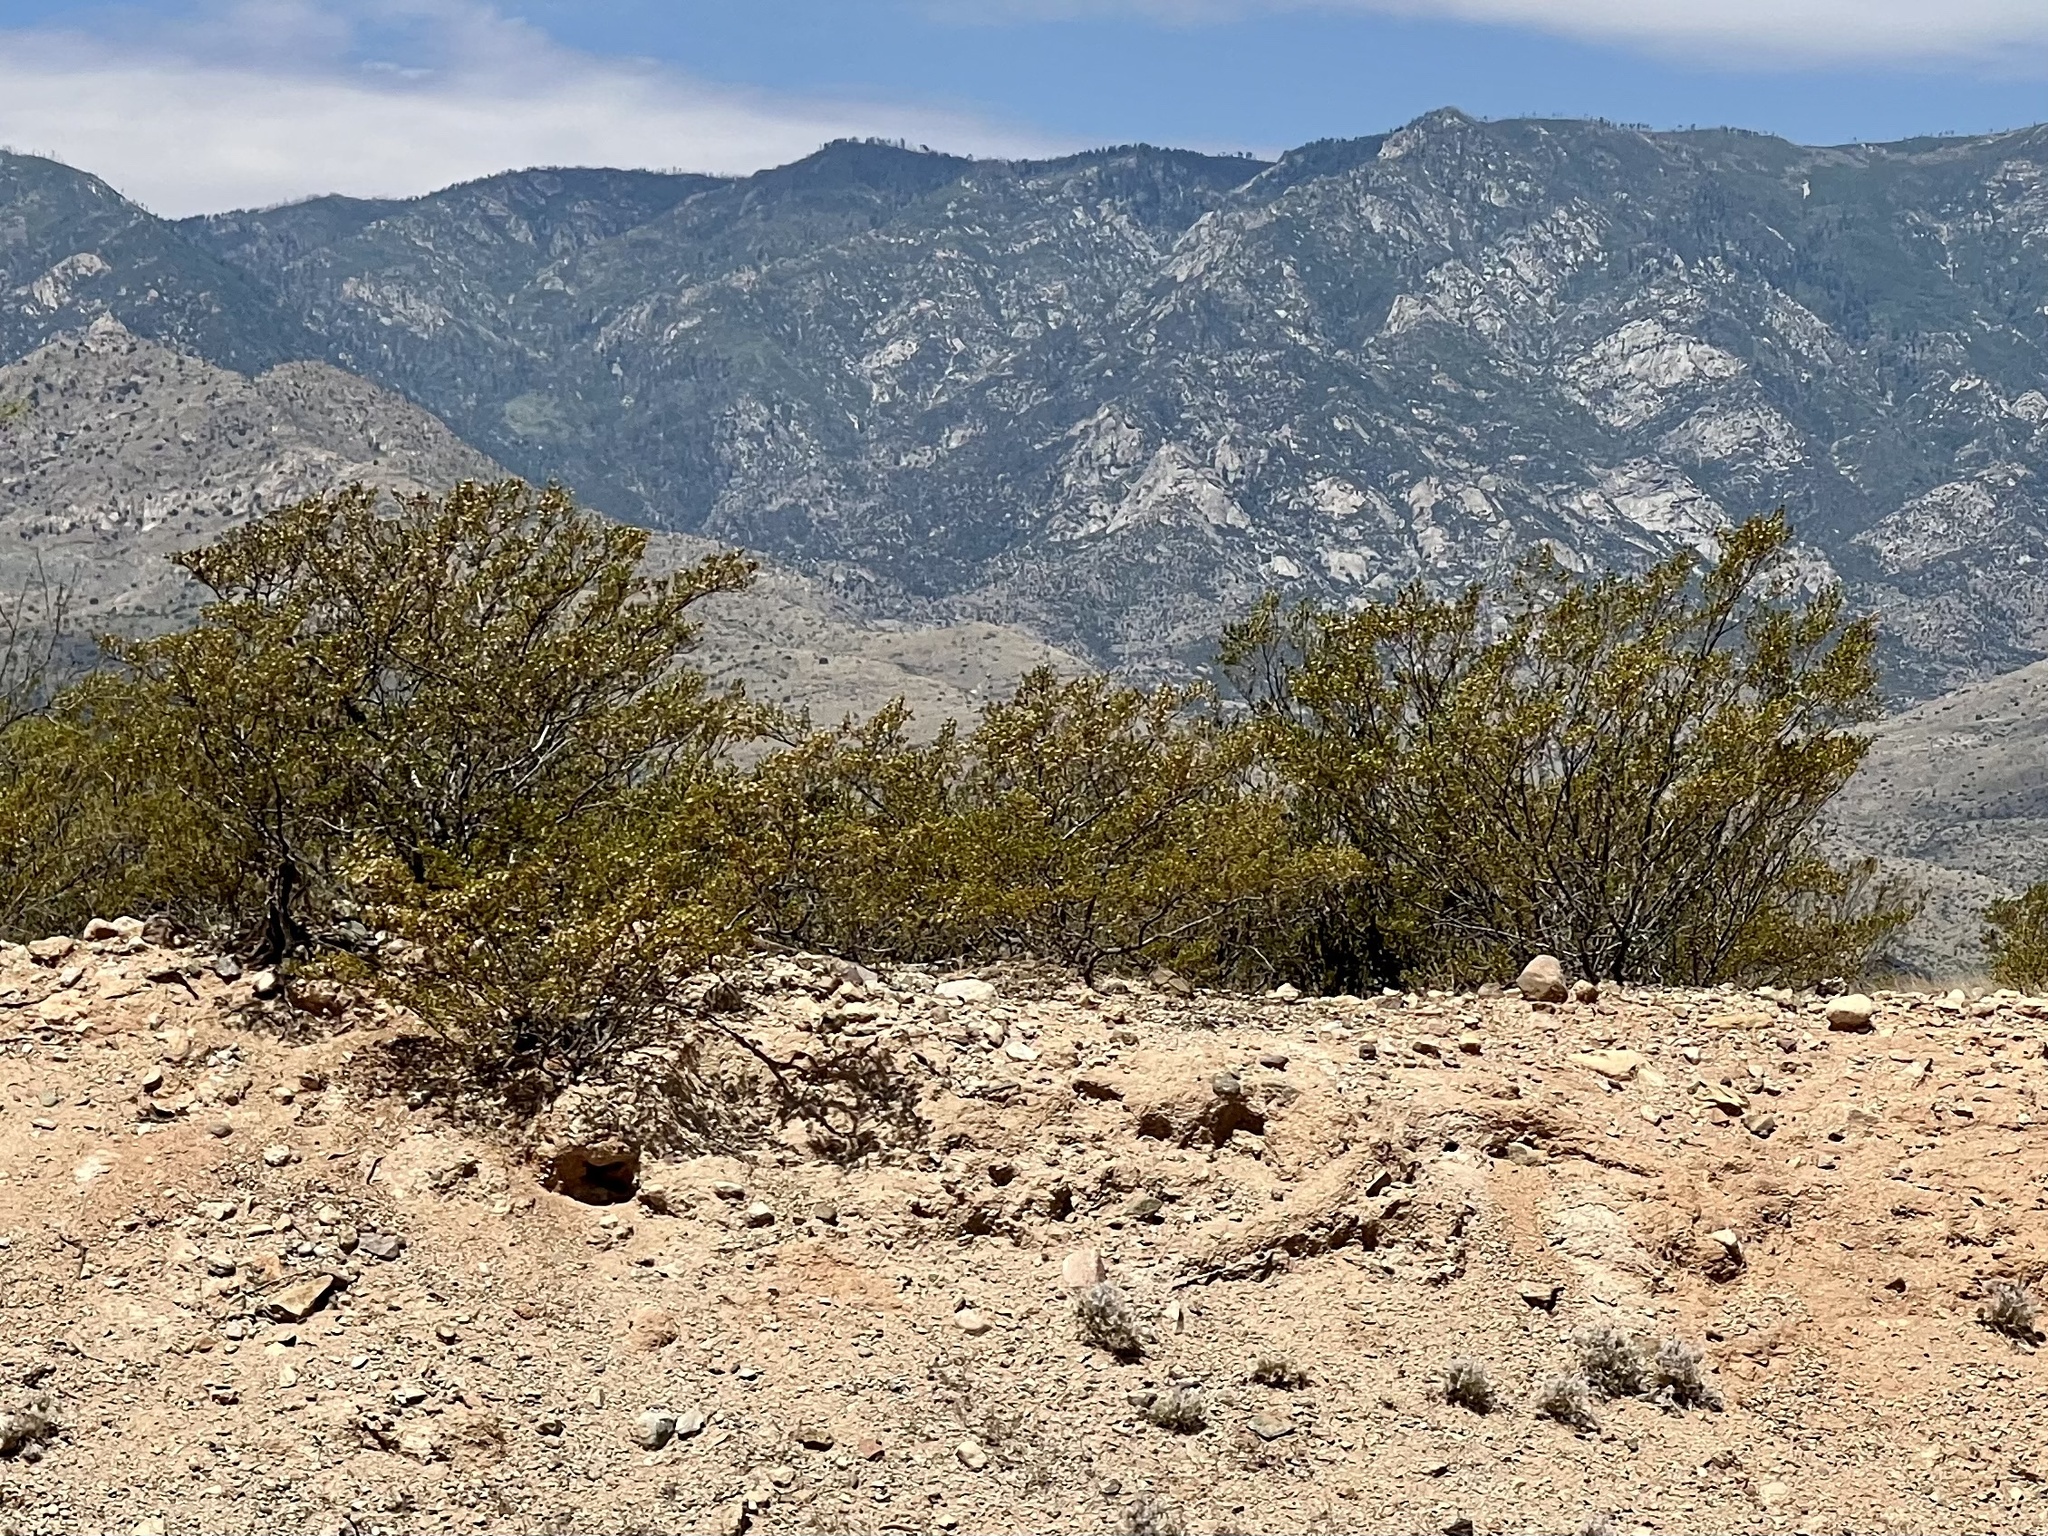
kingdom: Plantae
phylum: Tracheophyta
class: Magnoliopsida
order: Zygophyllales
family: Zygophyllaceae
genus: Larrea
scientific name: Larrea tridentata
